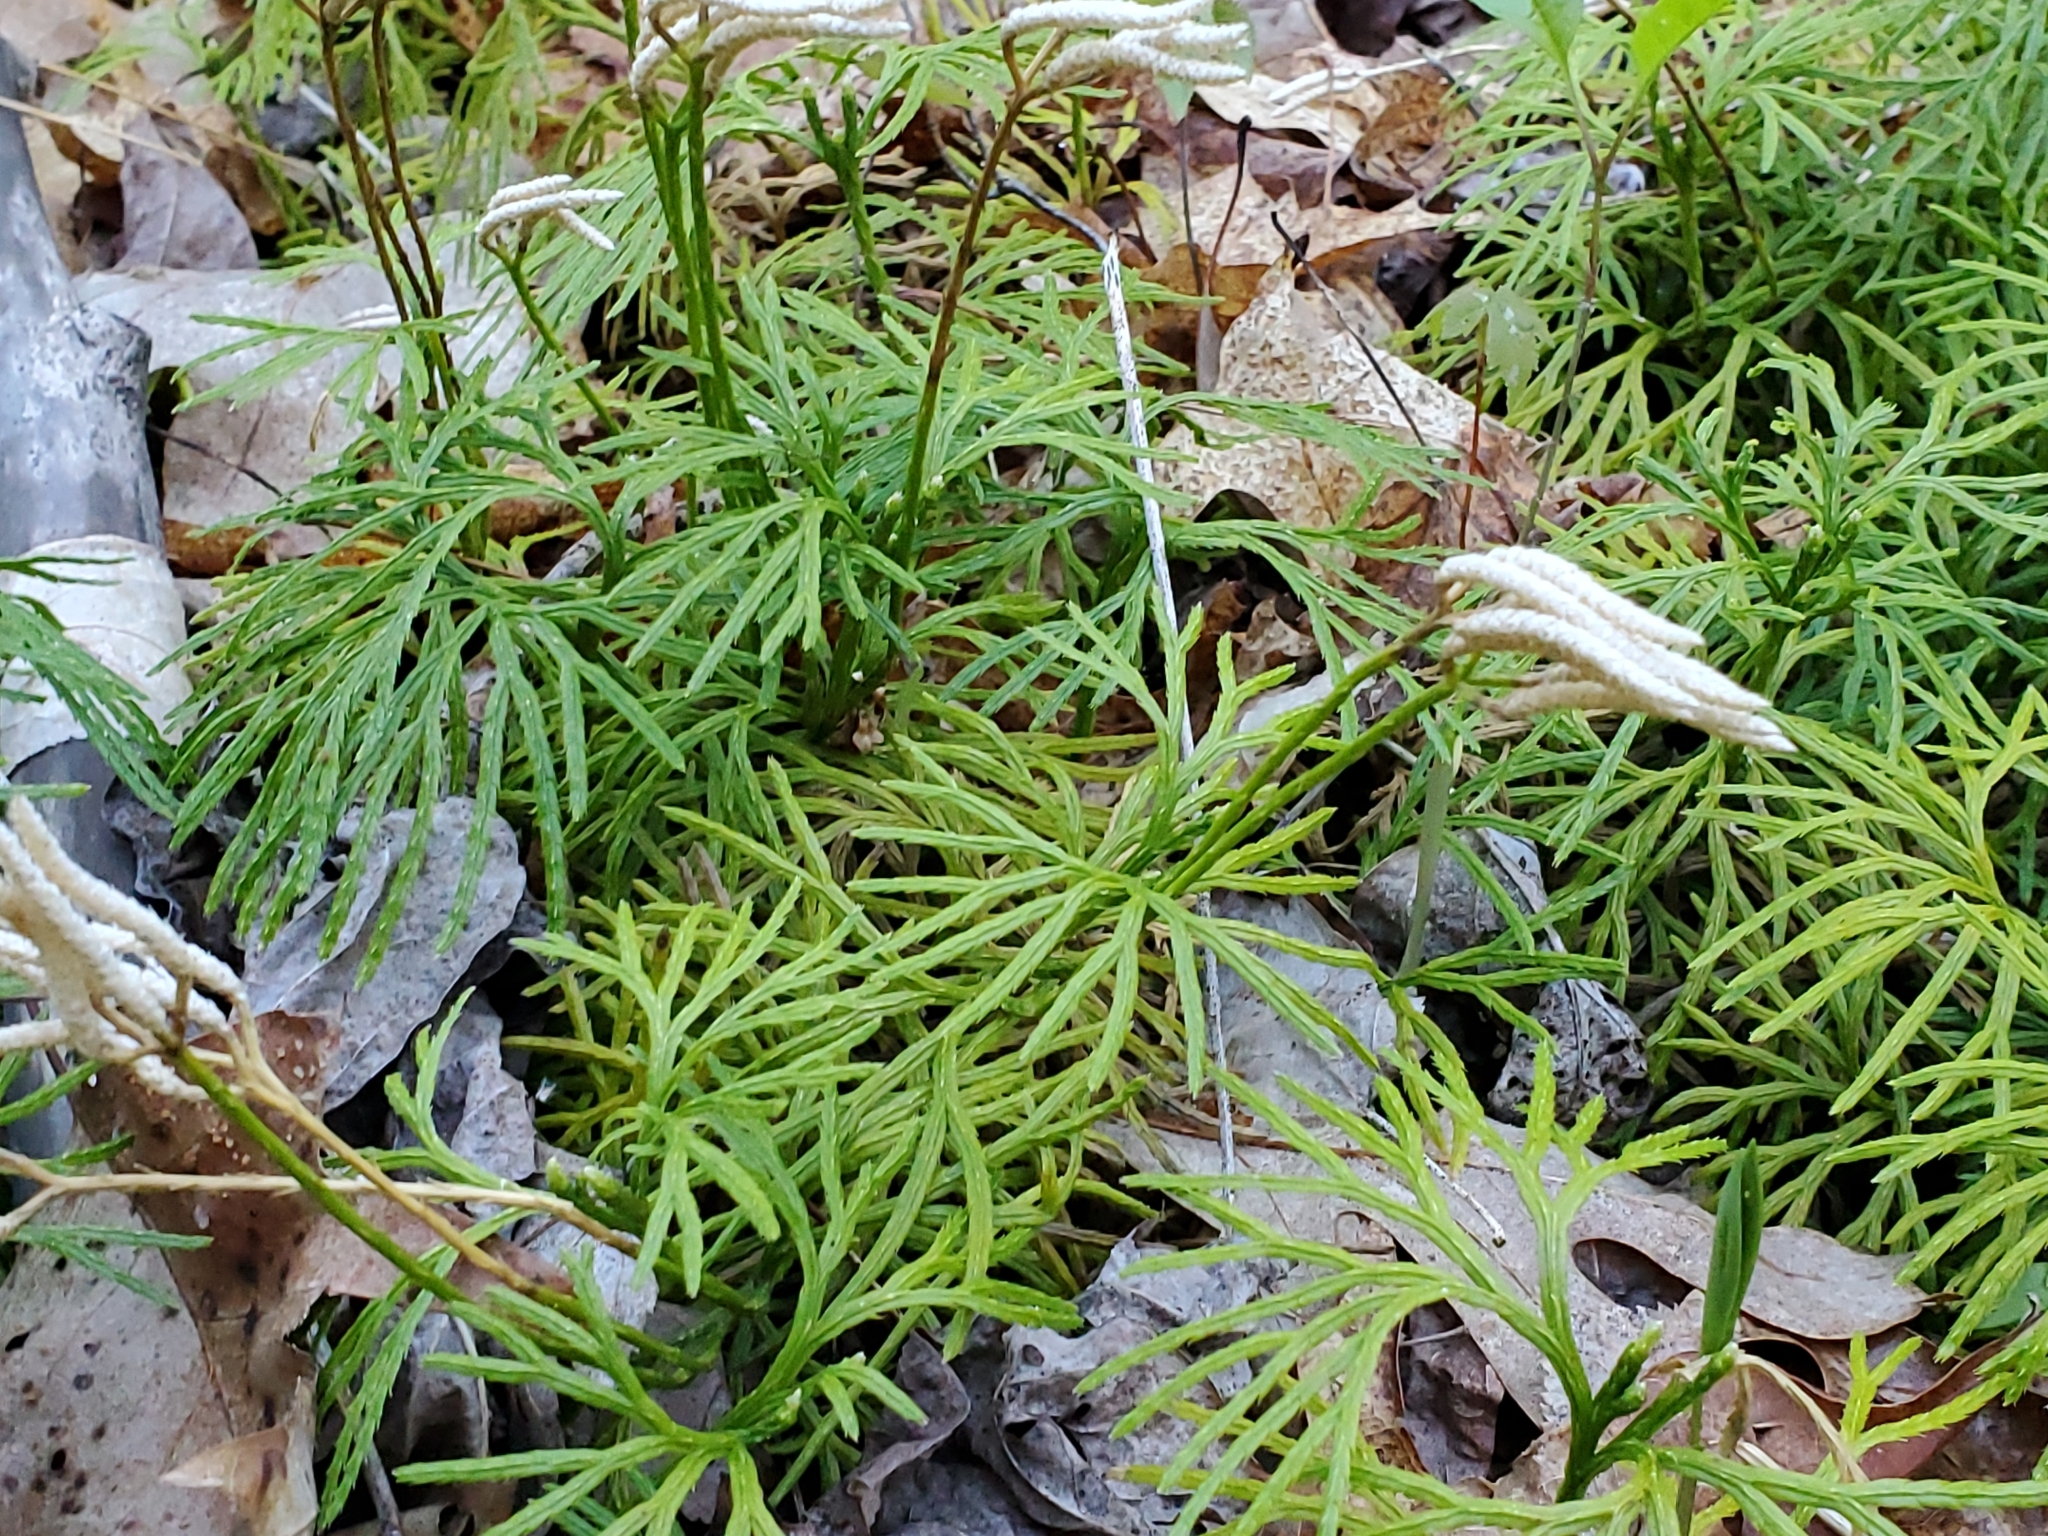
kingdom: Plantae
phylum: Tracheophyta
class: Lycopodiopsida
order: Lycopodiales
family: Lycopodiaceae
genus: Diphasiastrum
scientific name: Diphasiastrum digitatum
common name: Southern running-pine
